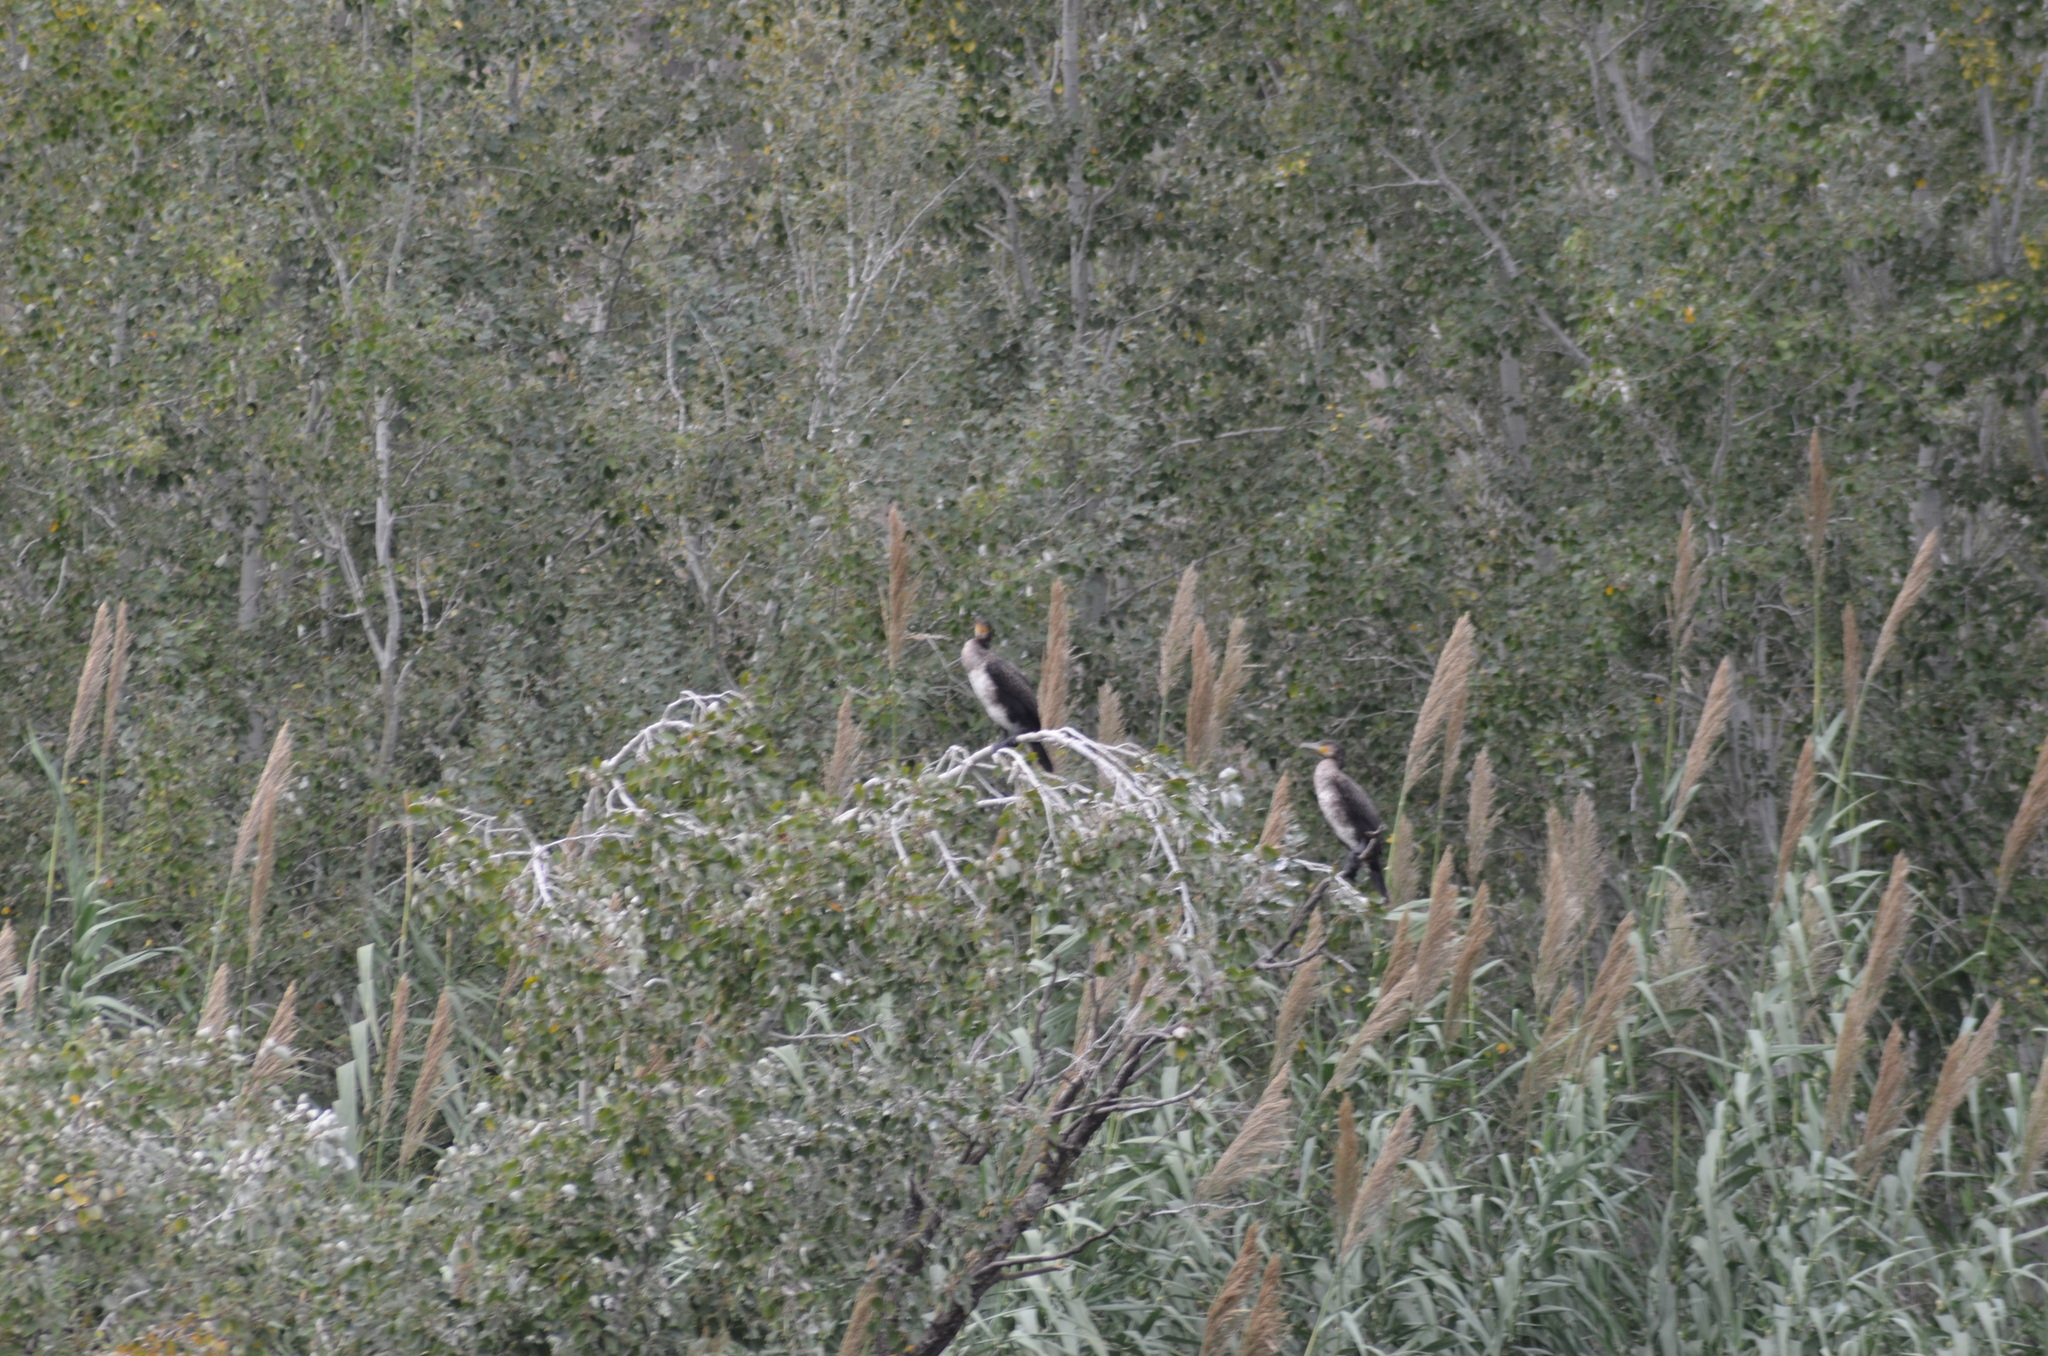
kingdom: Animalia
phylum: Chordata
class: Aves
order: Suliformes
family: Phalacrocoracidae
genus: Phalacrocorax
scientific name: Phalacrocorax carbo
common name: Great cormorant
